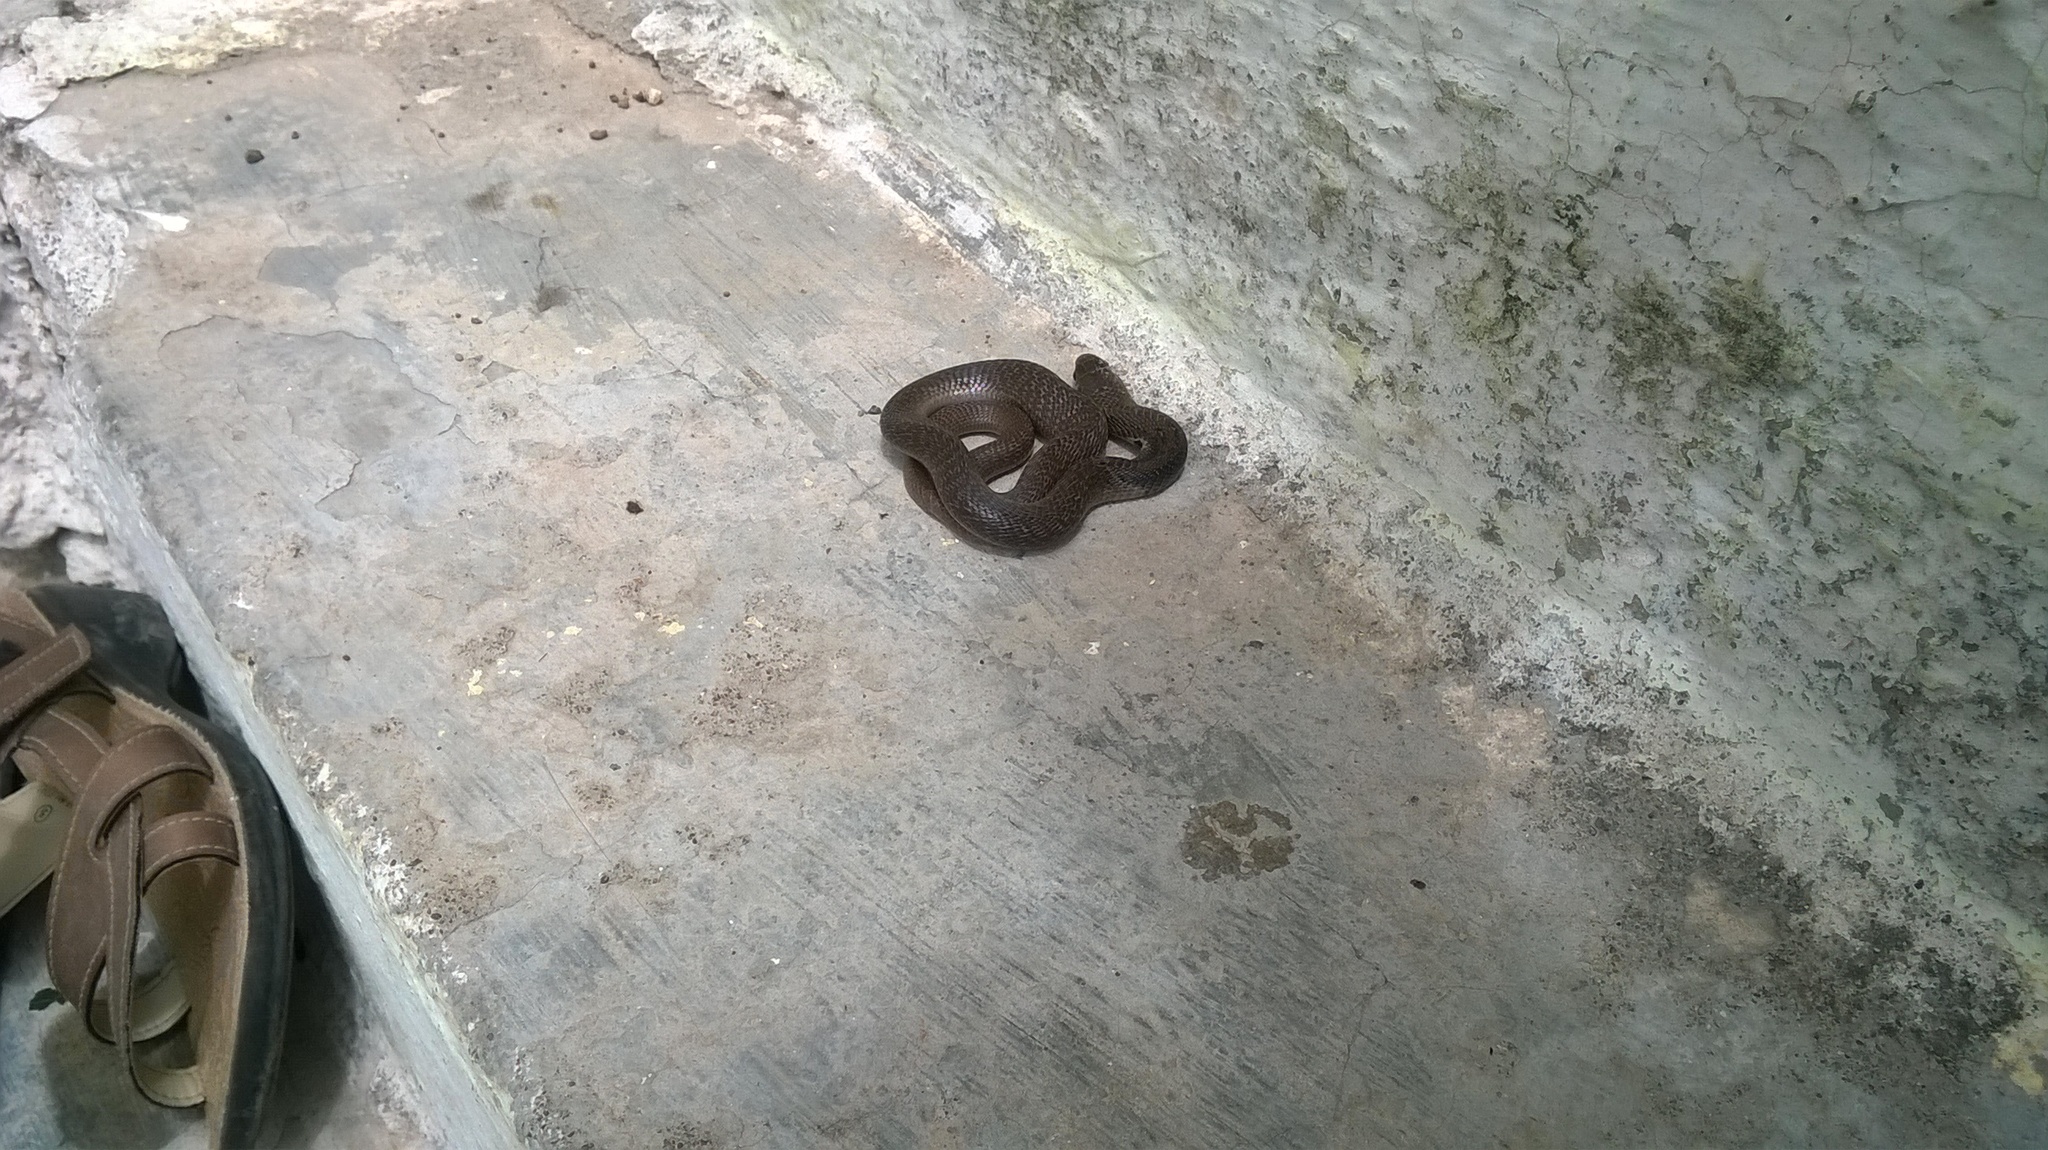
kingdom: Animalia
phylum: Chordata
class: Squamata
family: Elapidae
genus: Naja
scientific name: Naja naja
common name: Indian cobra
